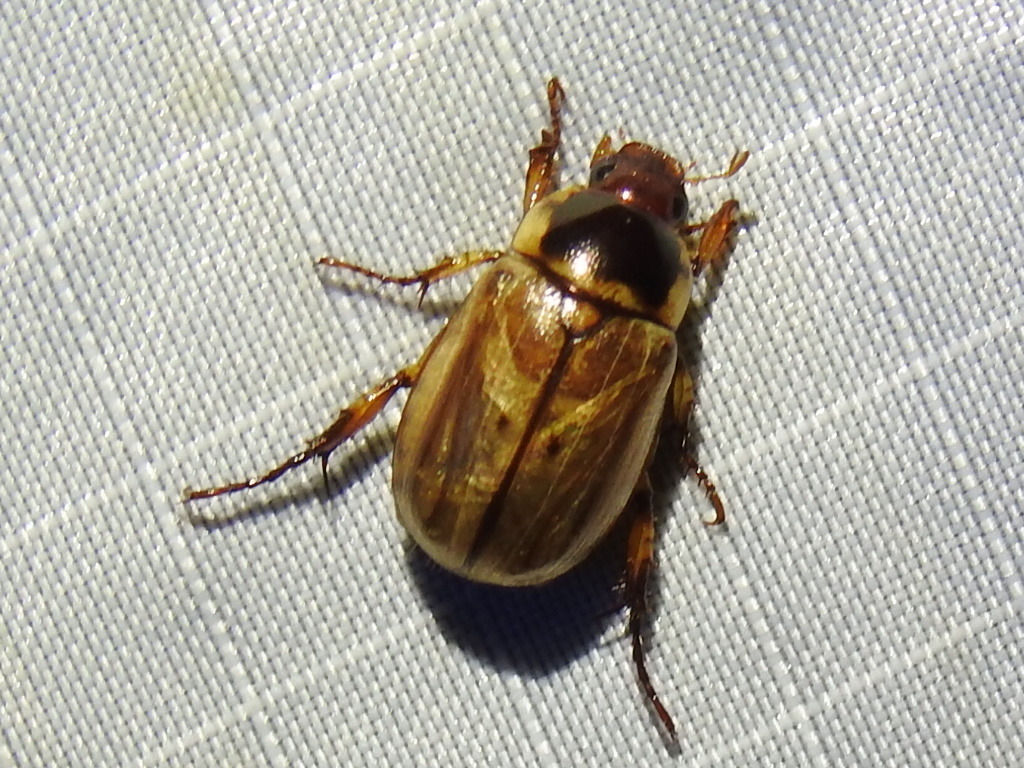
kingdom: Animalia
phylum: Arthropoda
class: Insecta
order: Coleoptera
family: Scarabaeidae
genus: Paranomala
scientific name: Paranomala undulata
